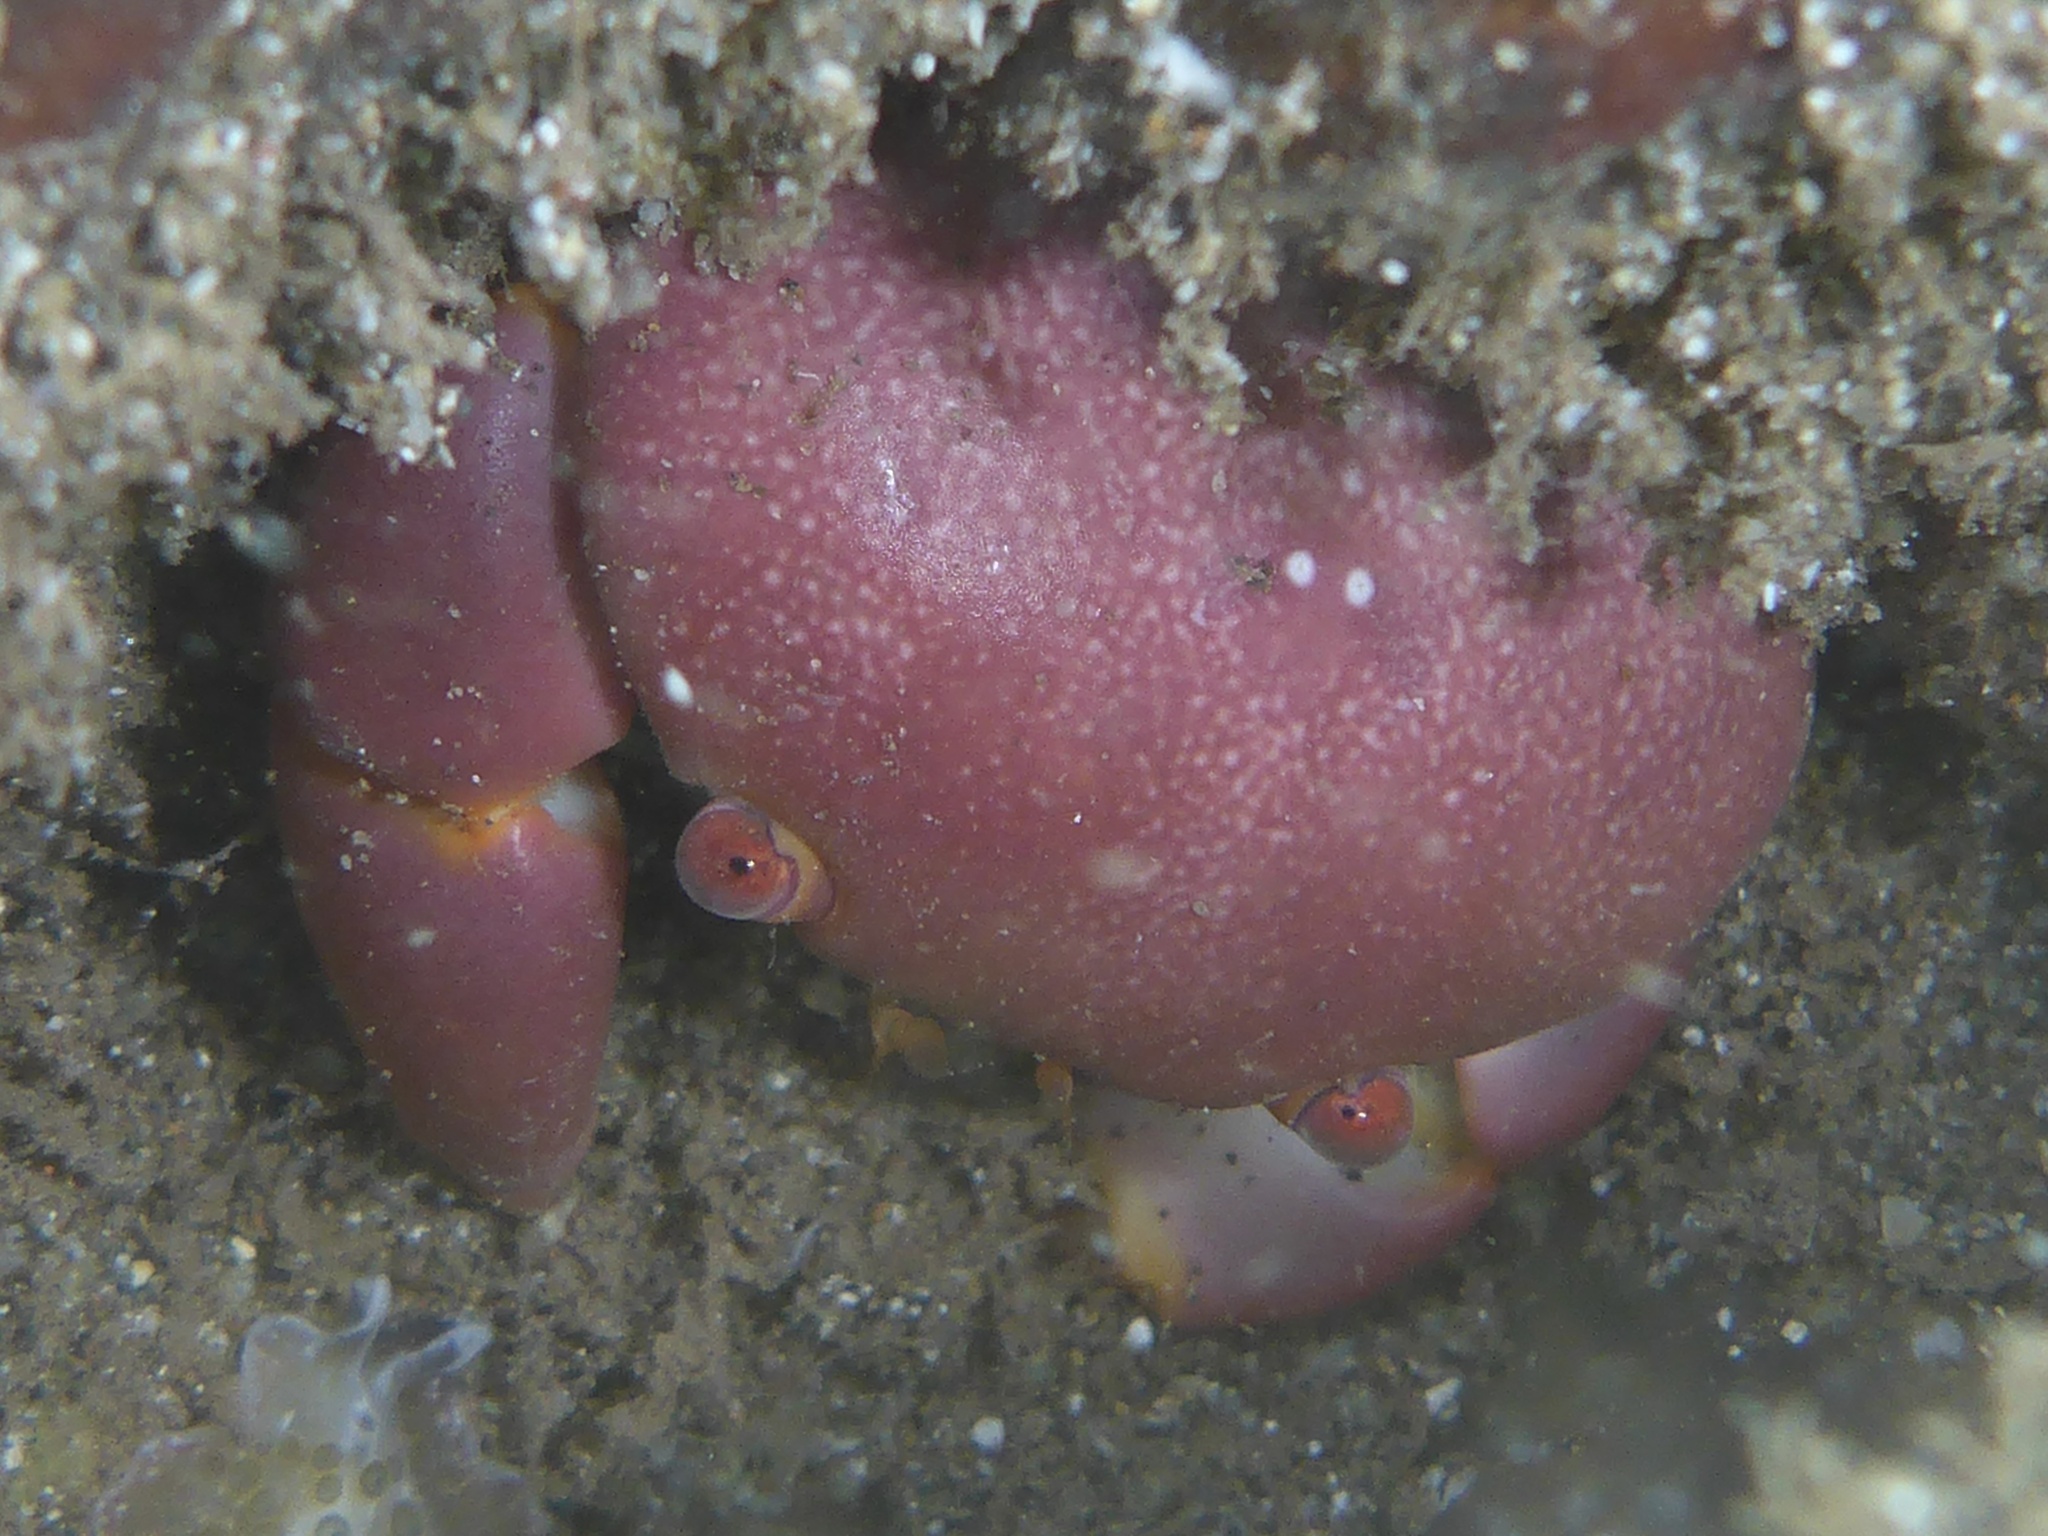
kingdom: Animalia
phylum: Arthropoda
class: Malacostraca
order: Decapoda
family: Carpiliidae
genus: Carpilius
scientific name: Carpilius convexus
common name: Convex reef crab
